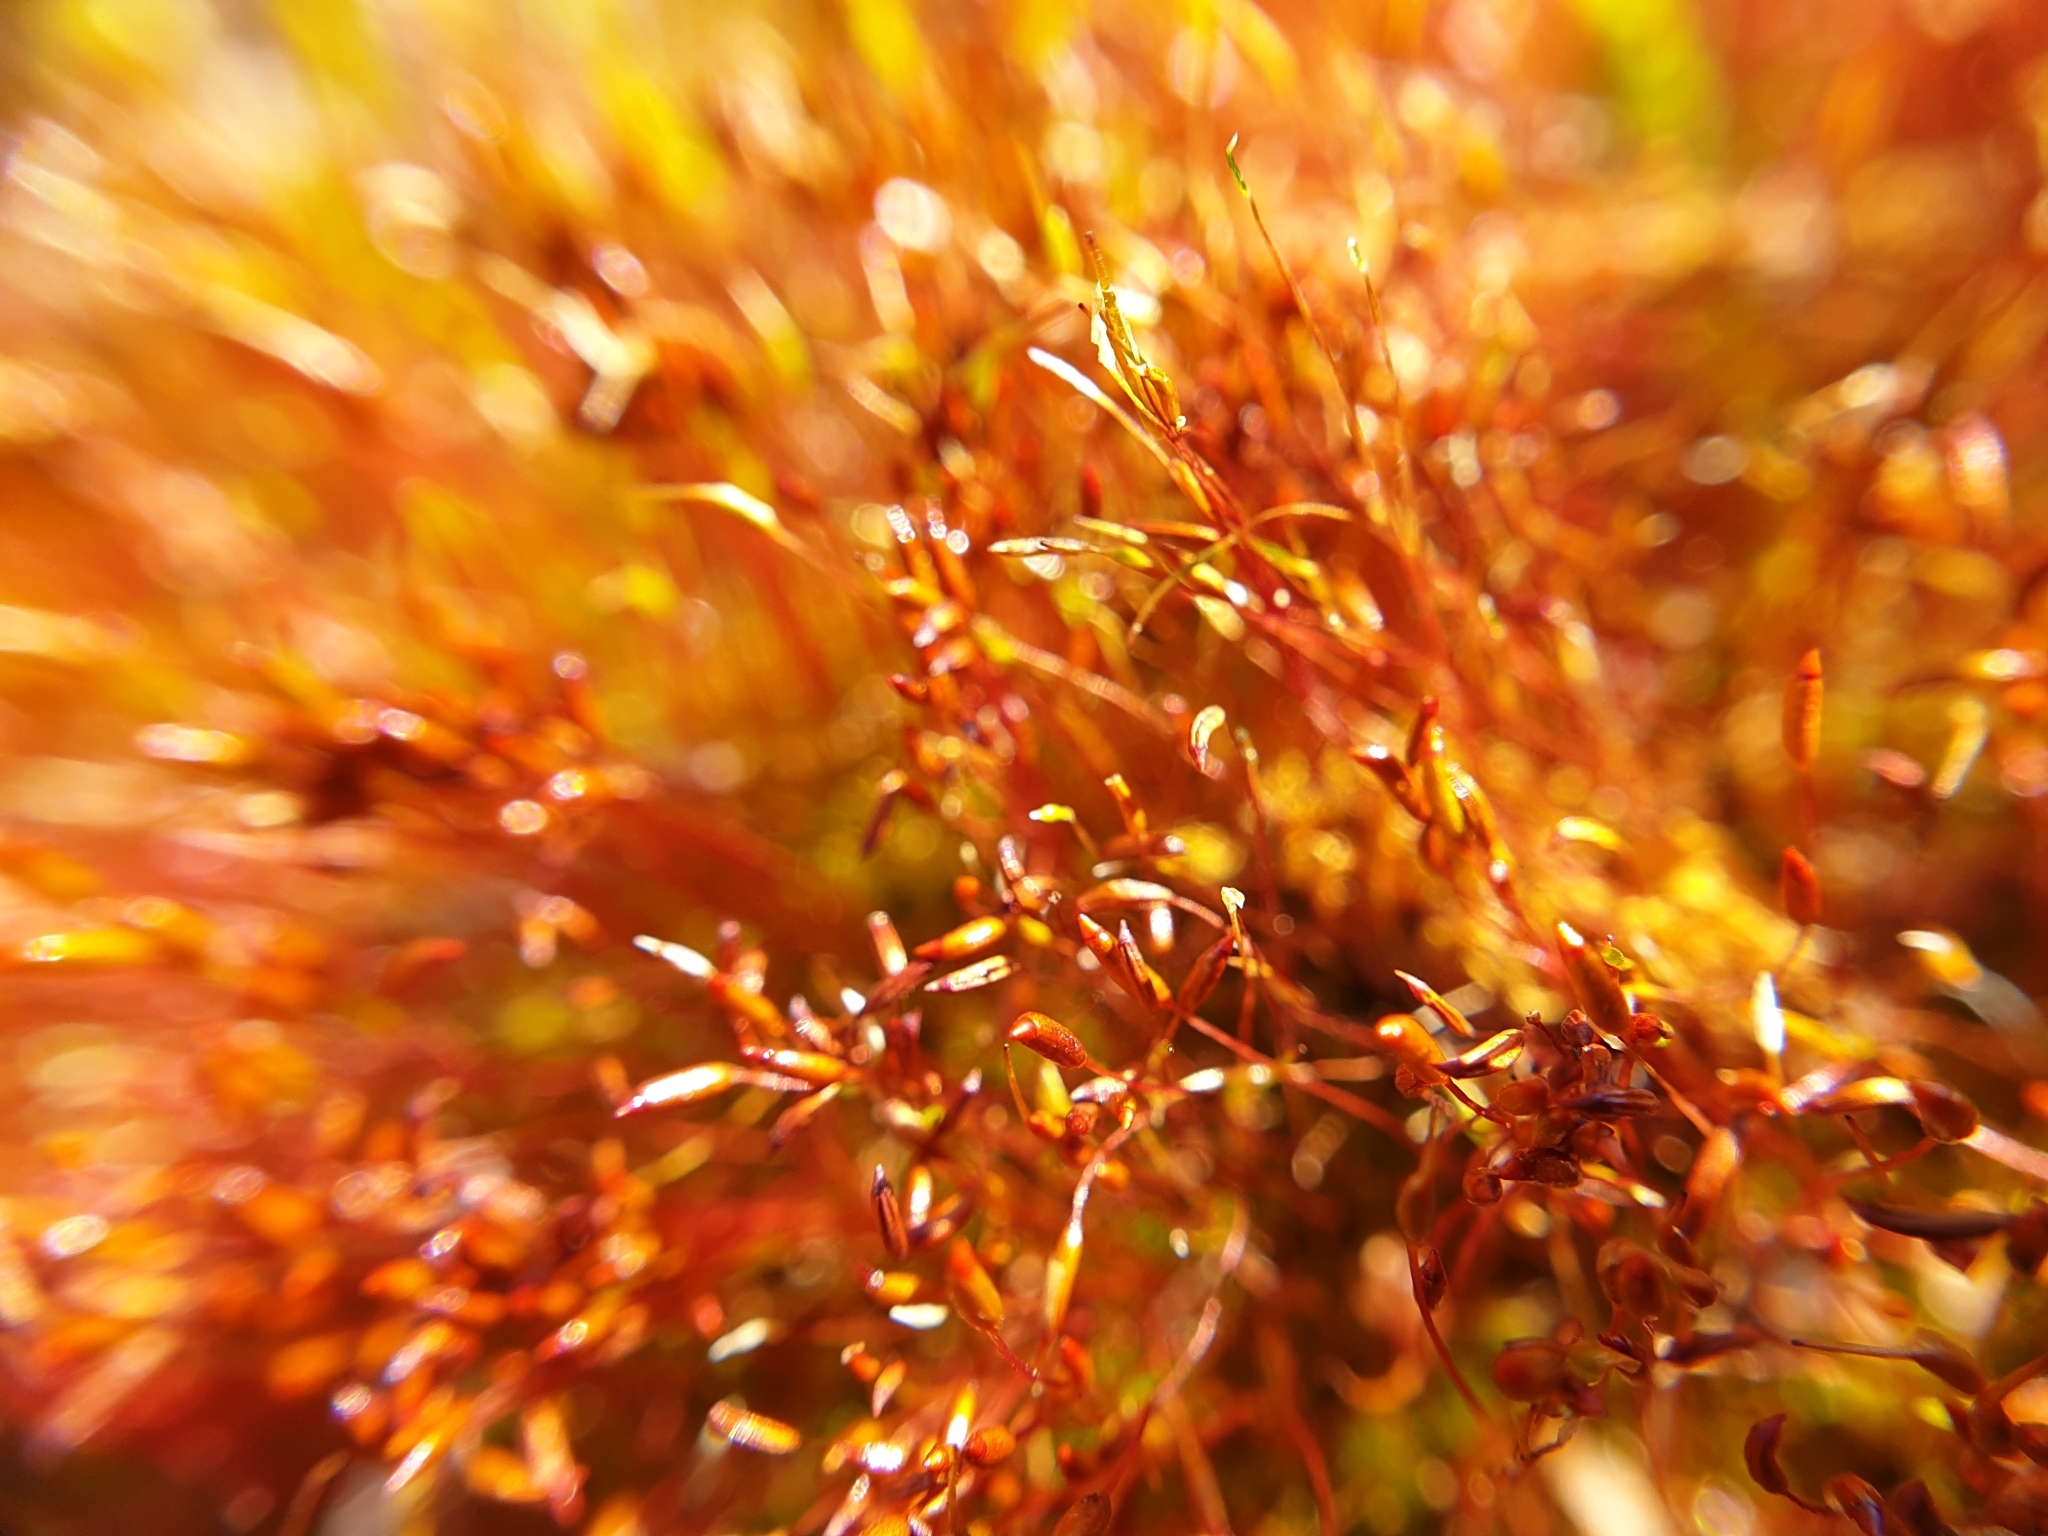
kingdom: Plantae
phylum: Bryophyta
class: Bryopsida
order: Dicranales
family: Ditrichaceae
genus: Ceratodon
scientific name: Ceratodon purpureus
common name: Redshank
